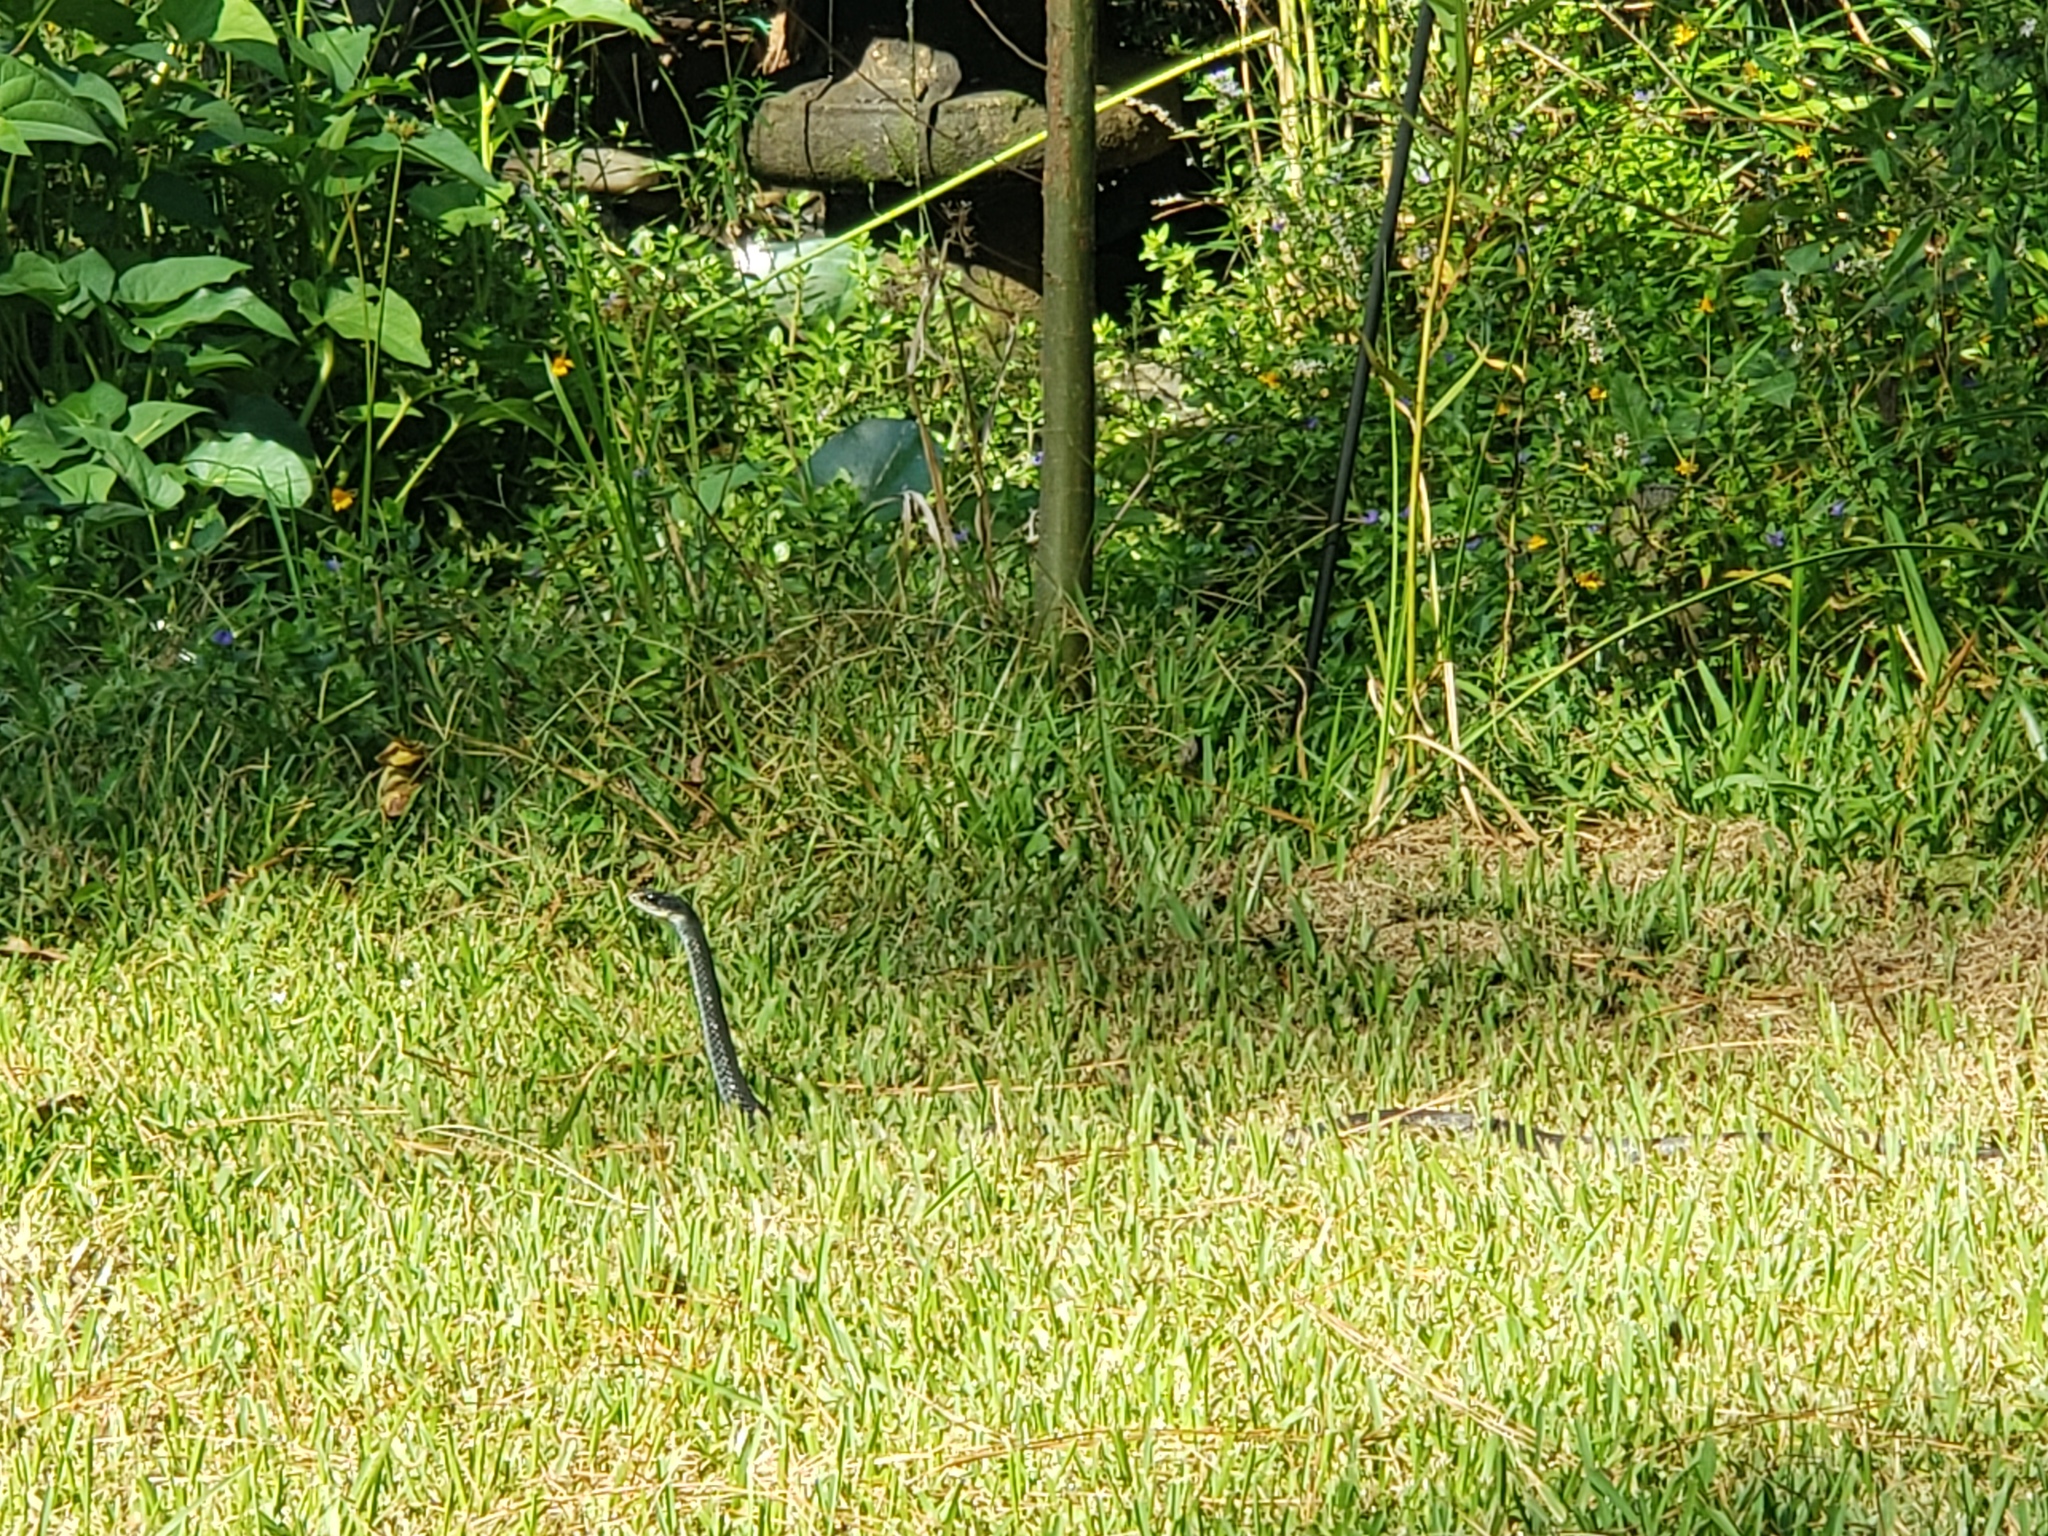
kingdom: Animalia
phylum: Chordata
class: Squamata
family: Colubridae
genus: Coluber
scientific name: Coluber constrictor
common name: Eastern racer
